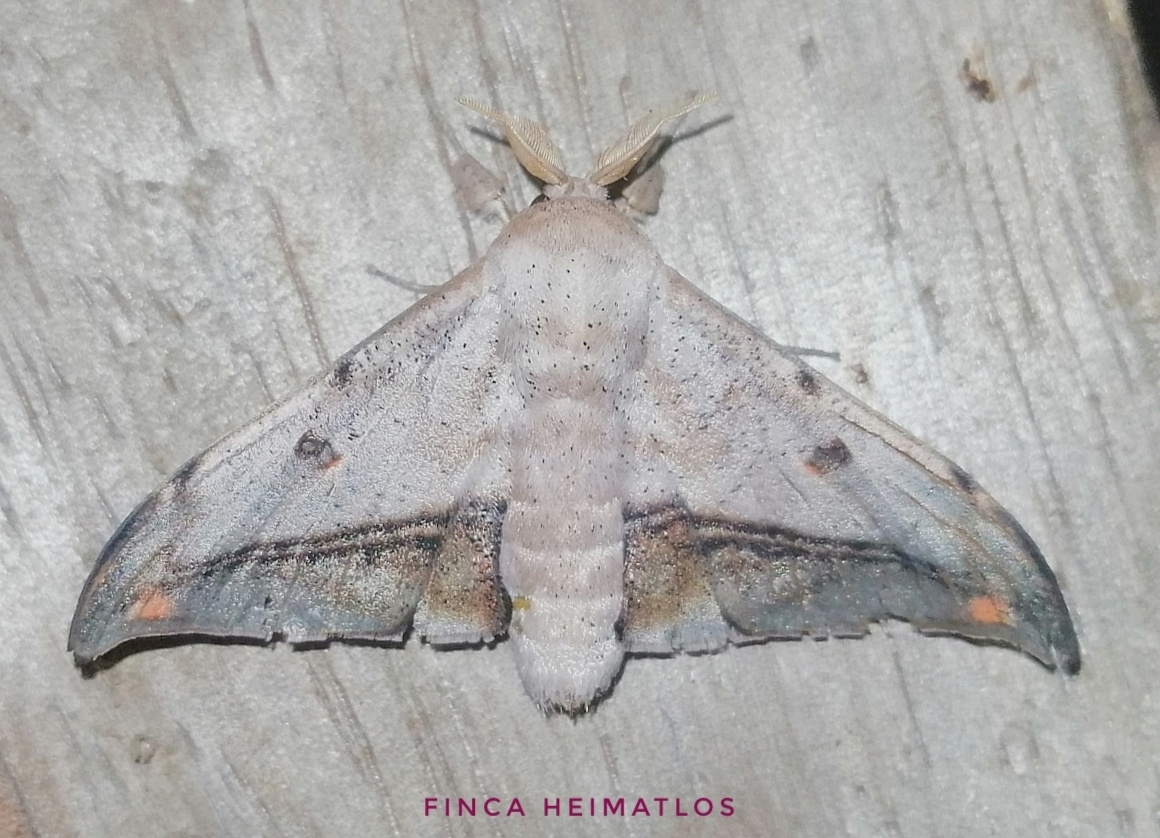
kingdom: Animalia
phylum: Arthropoda
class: Insecta
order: Lepidoptera
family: Mimallonidae
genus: Cicinnus
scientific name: Cicinnus fogia
